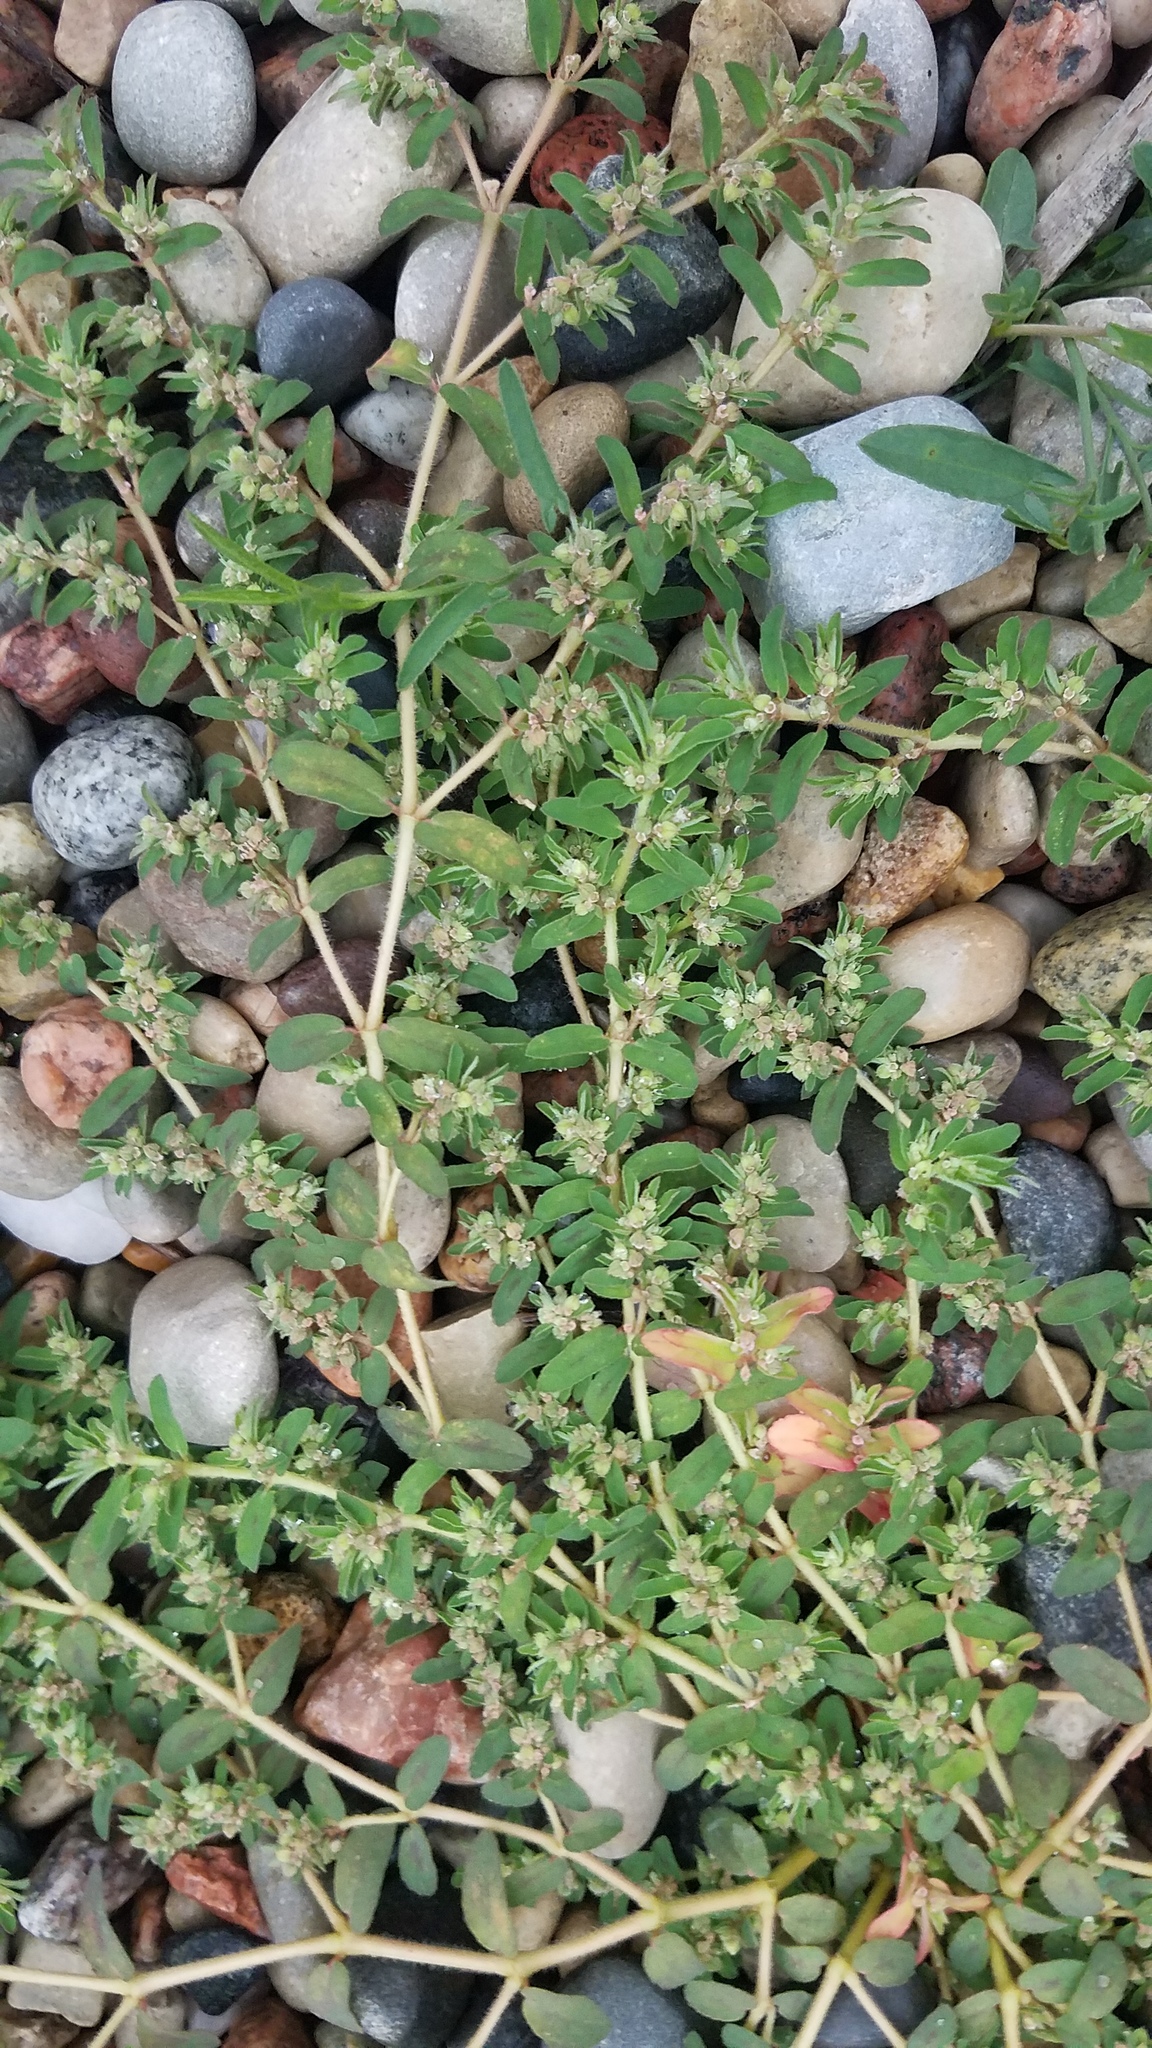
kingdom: Plantae
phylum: Tracheophyta
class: Magnoliopsida
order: Malpighiales
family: Euphorbiaceae
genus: Euphorbia
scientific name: Euphorbia maculata
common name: Spotted spurge
